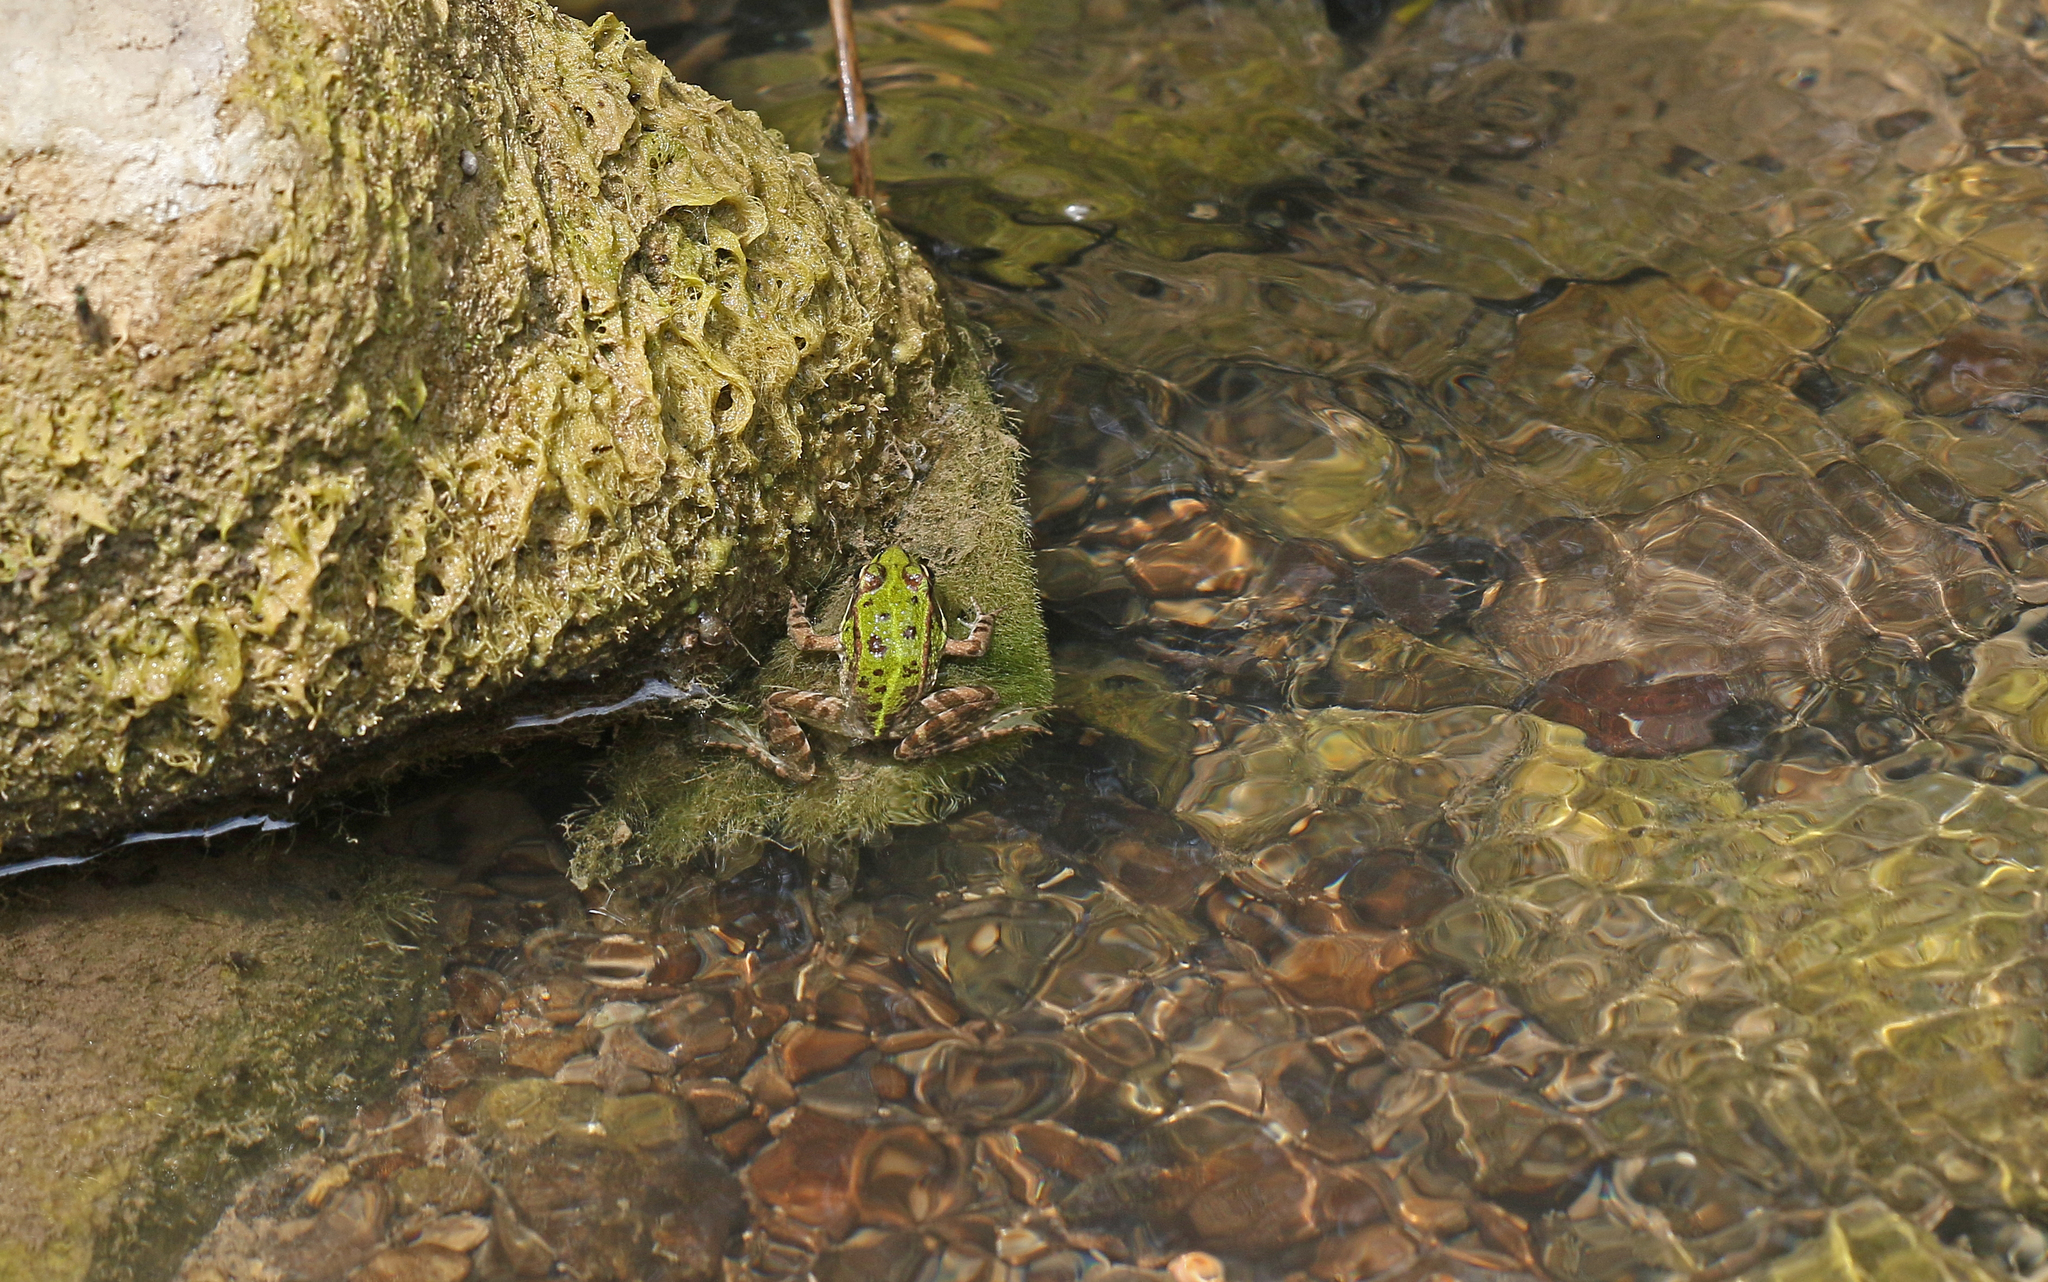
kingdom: Animalia
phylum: Chordata
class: Amphibia
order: Anura
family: Ranidae
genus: Pelophylax
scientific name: Pelophylax perezi
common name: Perez's frog
